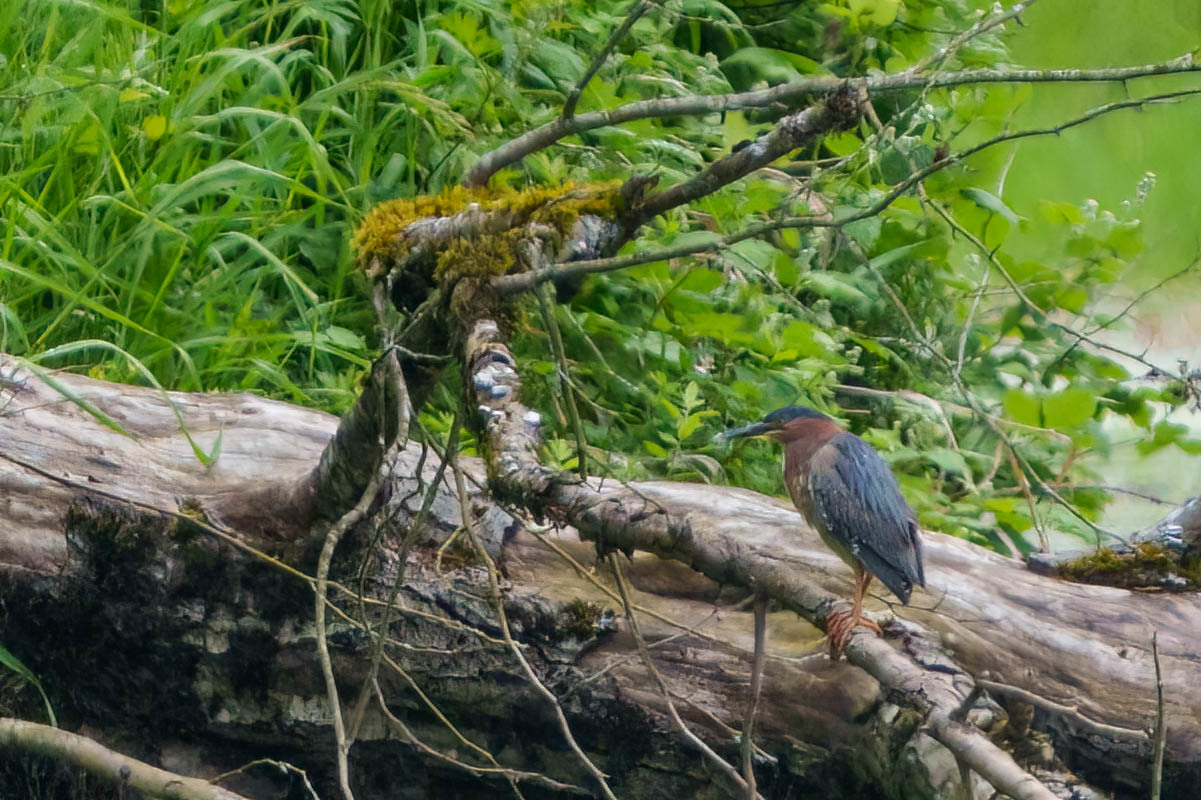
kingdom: Animalia
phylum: Chordata
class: Aves
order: Pelecaniformes
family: Ardeidae
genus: Butorides
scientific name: Butorides virescens
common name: Green heron
